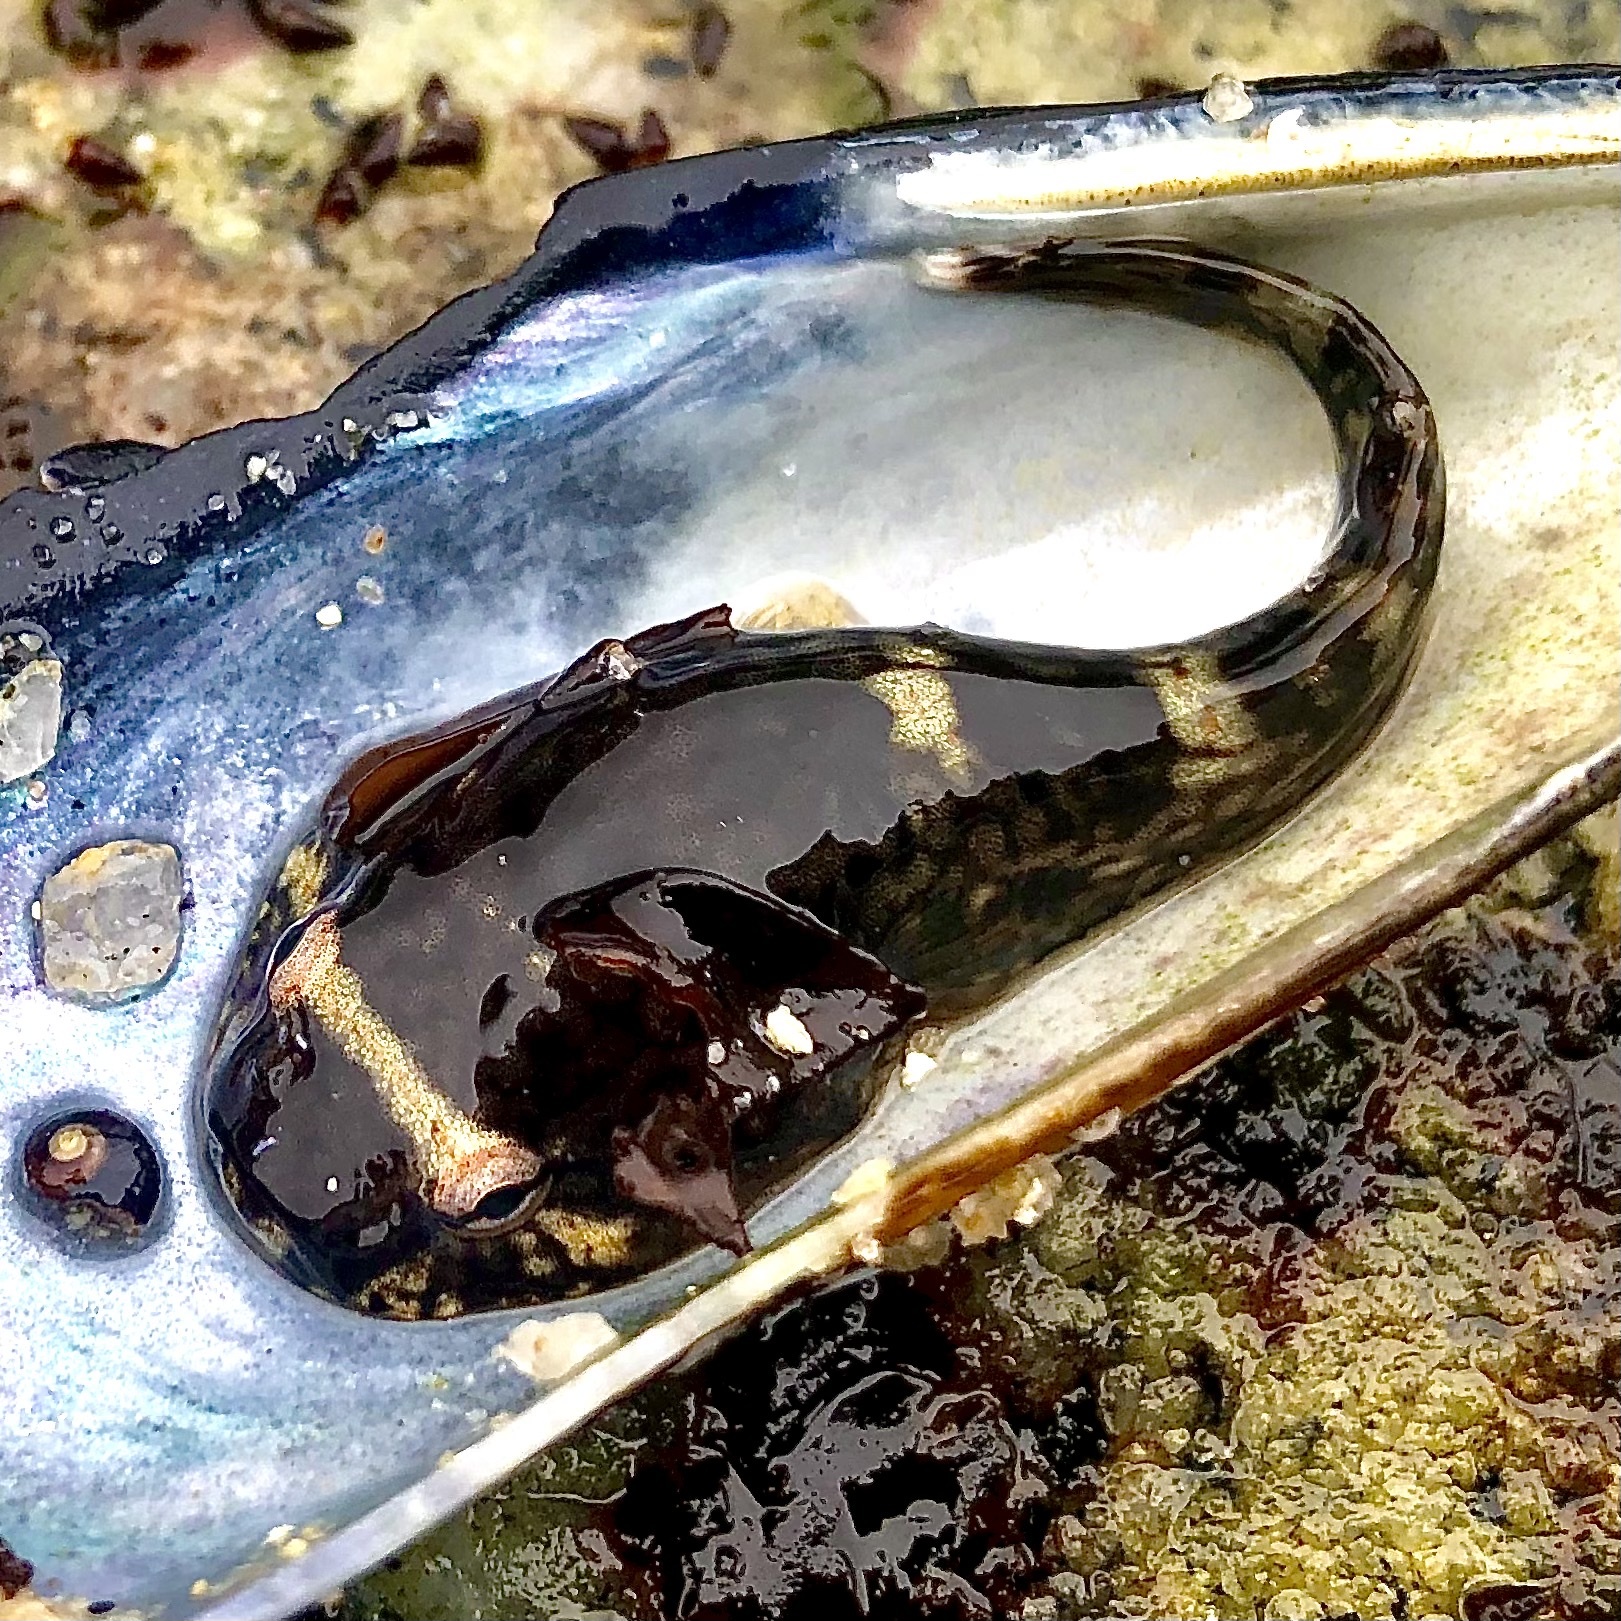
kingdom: Animalia
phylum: Chordata
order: Gobiesociformes
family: Gobiesocidae
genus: Gobiesox
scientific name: Gobiesox maeandricus
